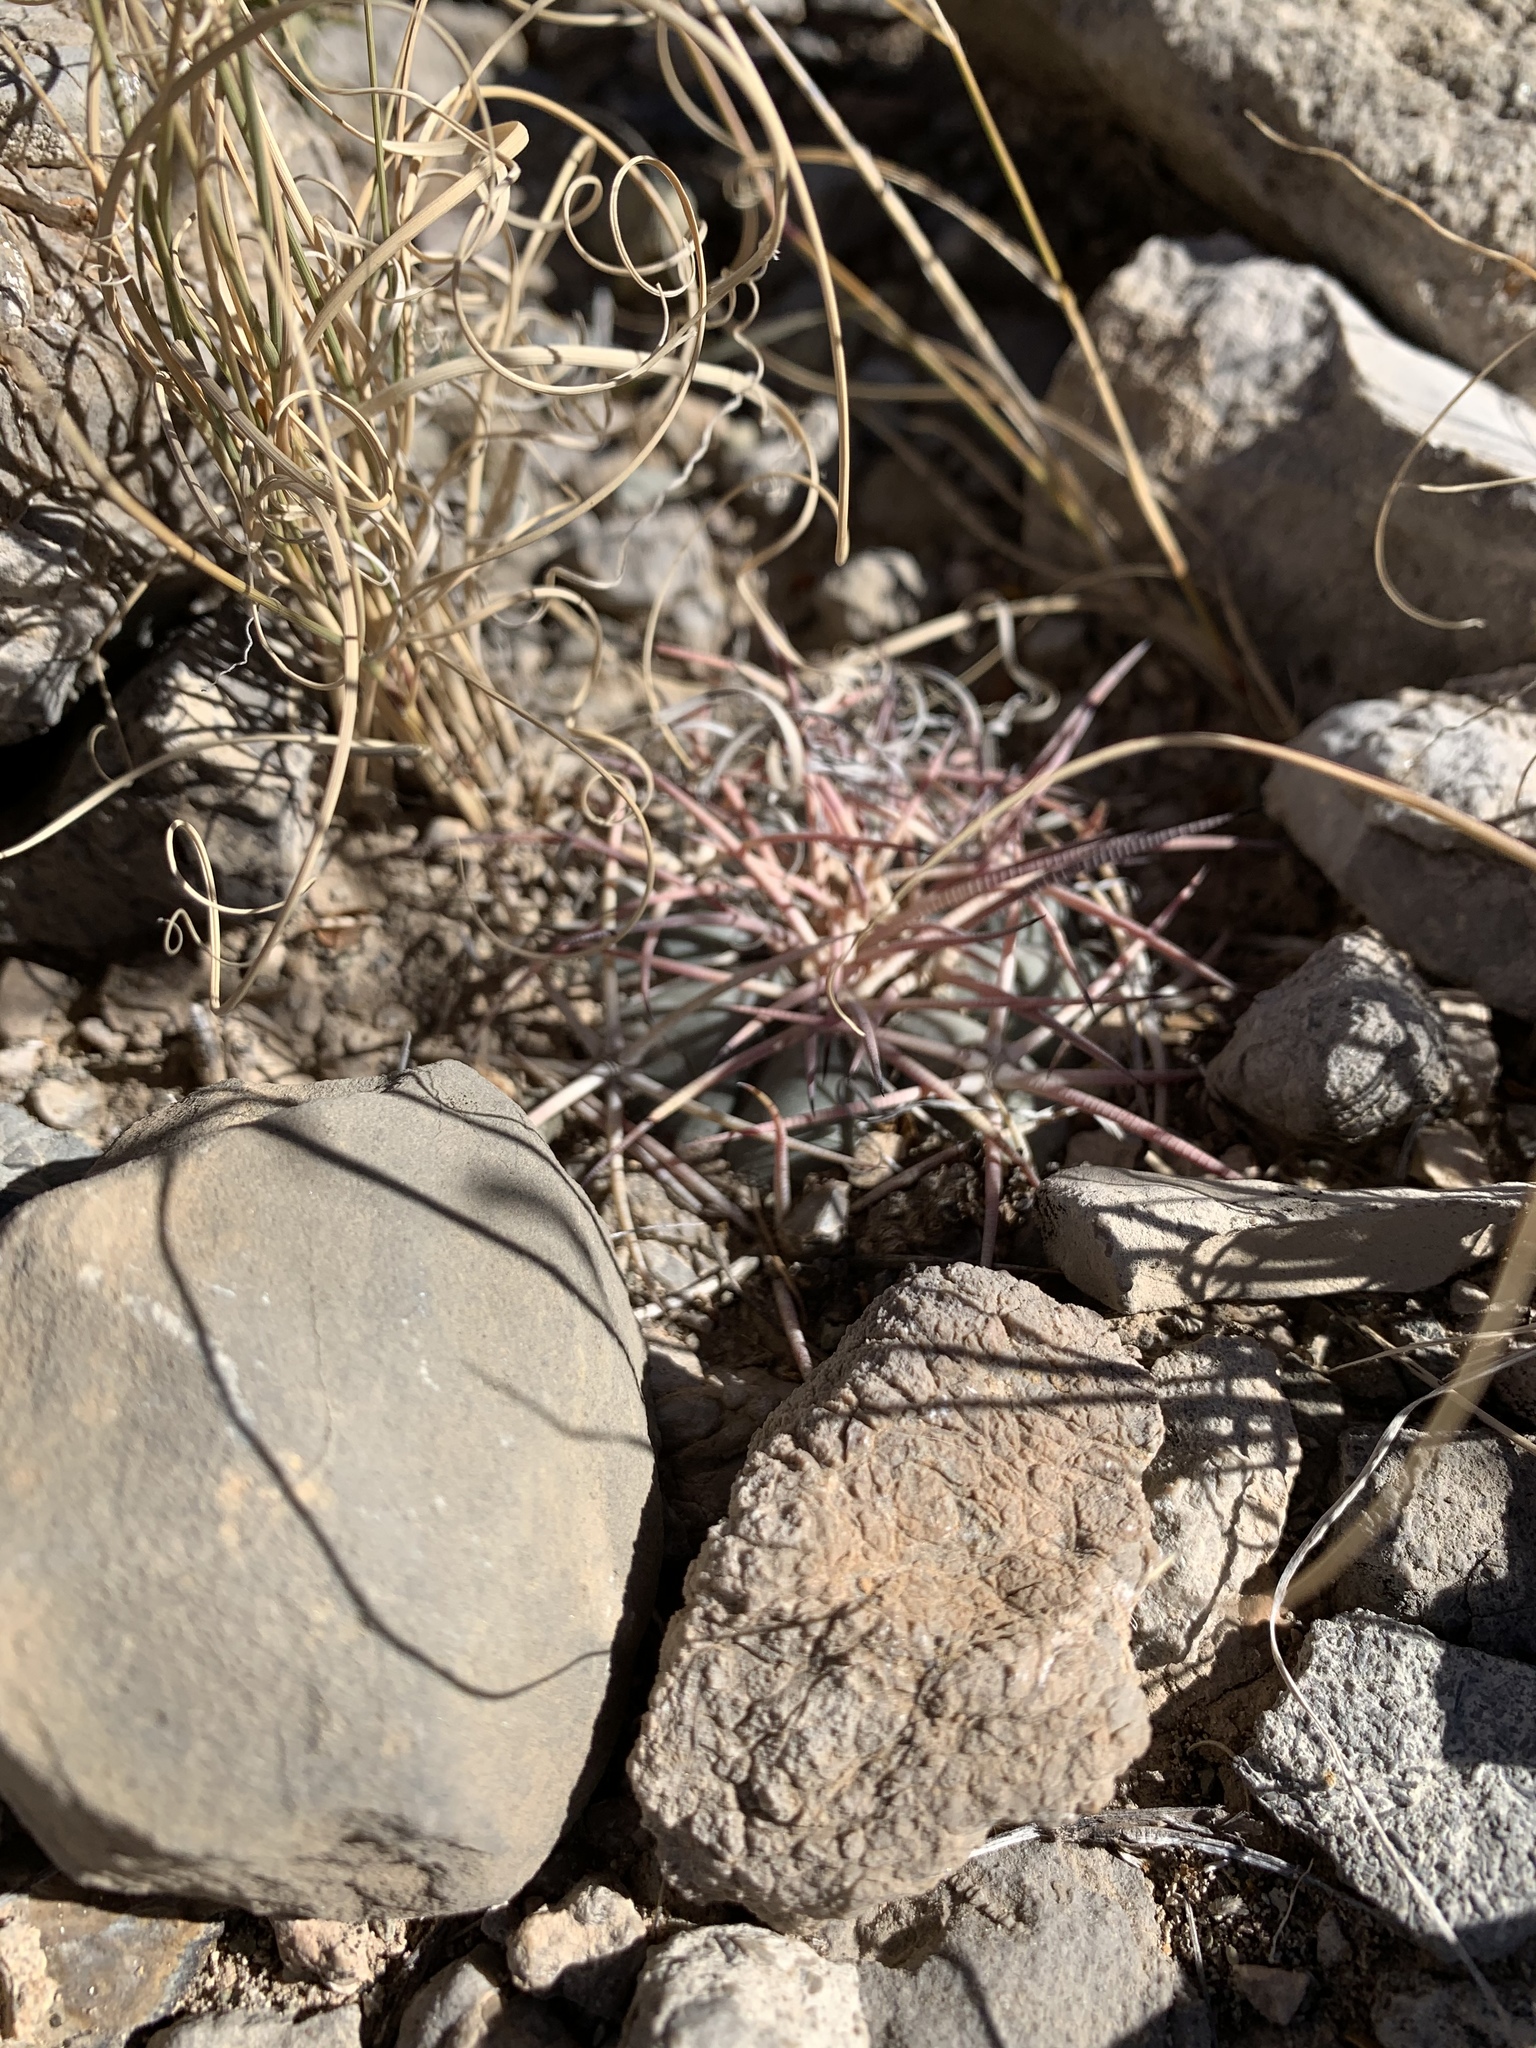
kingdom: Plantae
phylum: Tracheophyta
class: Magnoliopsida
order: Caryophyllales
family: Cactaceae
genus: Echinocactus
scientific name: Echinocactus horizonthalonius
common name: Devilshead
